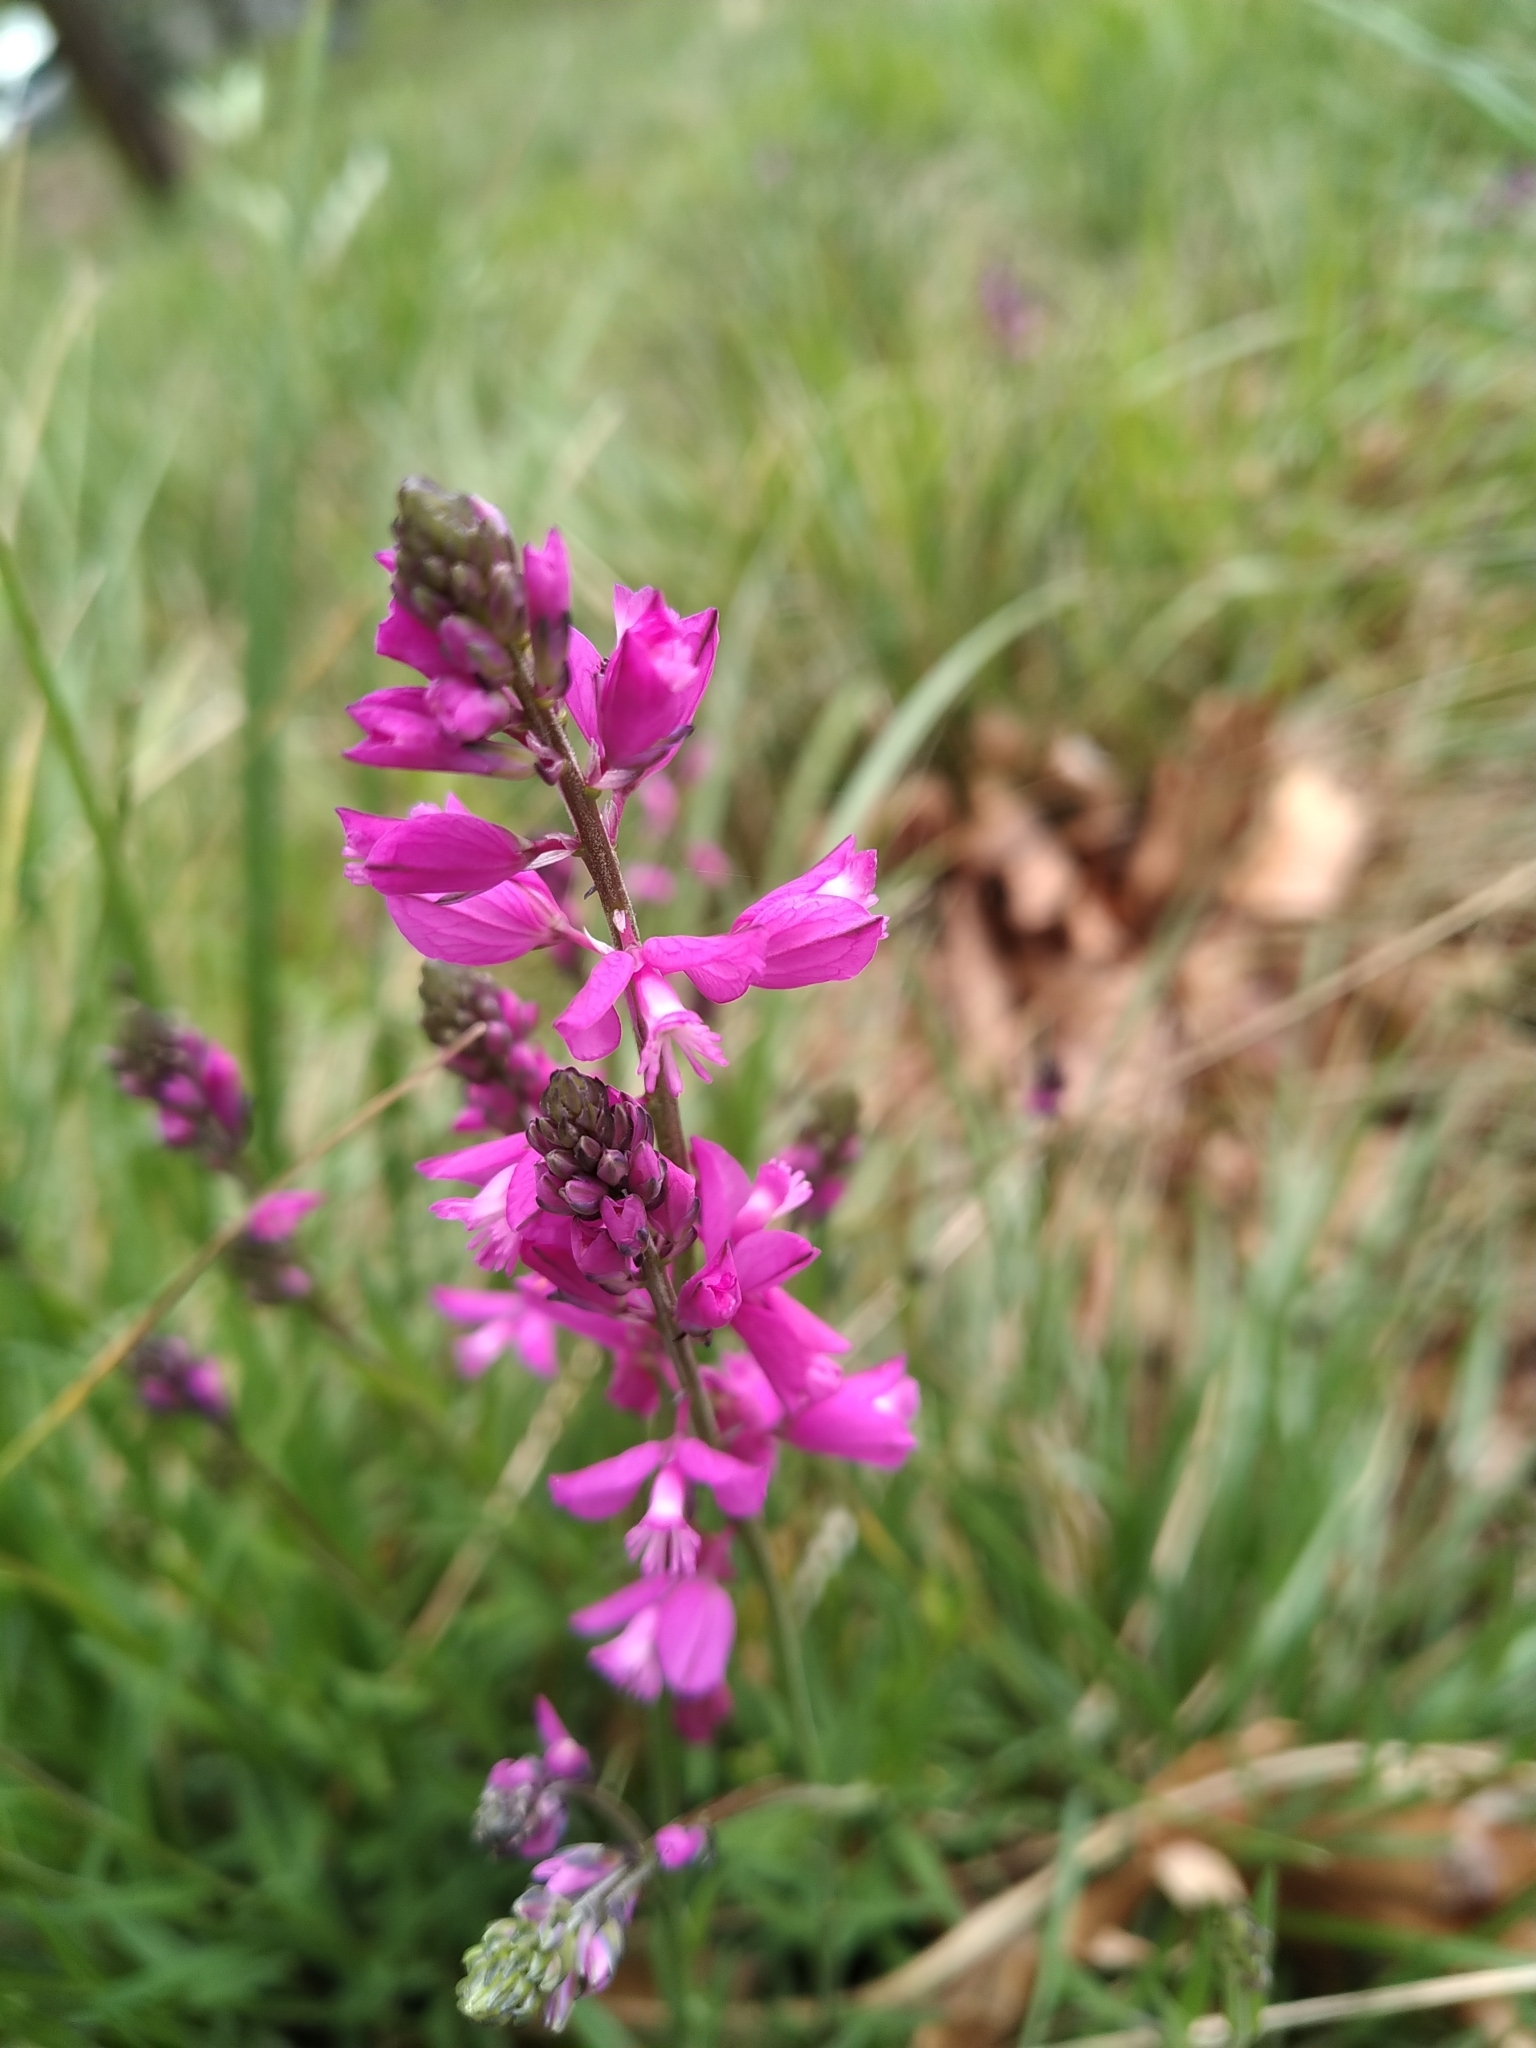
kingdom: Plantae
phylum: Tracheophyta
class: Magnoliopsida
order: Fabales
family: Polygalaceae
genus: Polygala
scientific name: Polygala nicaeensis
